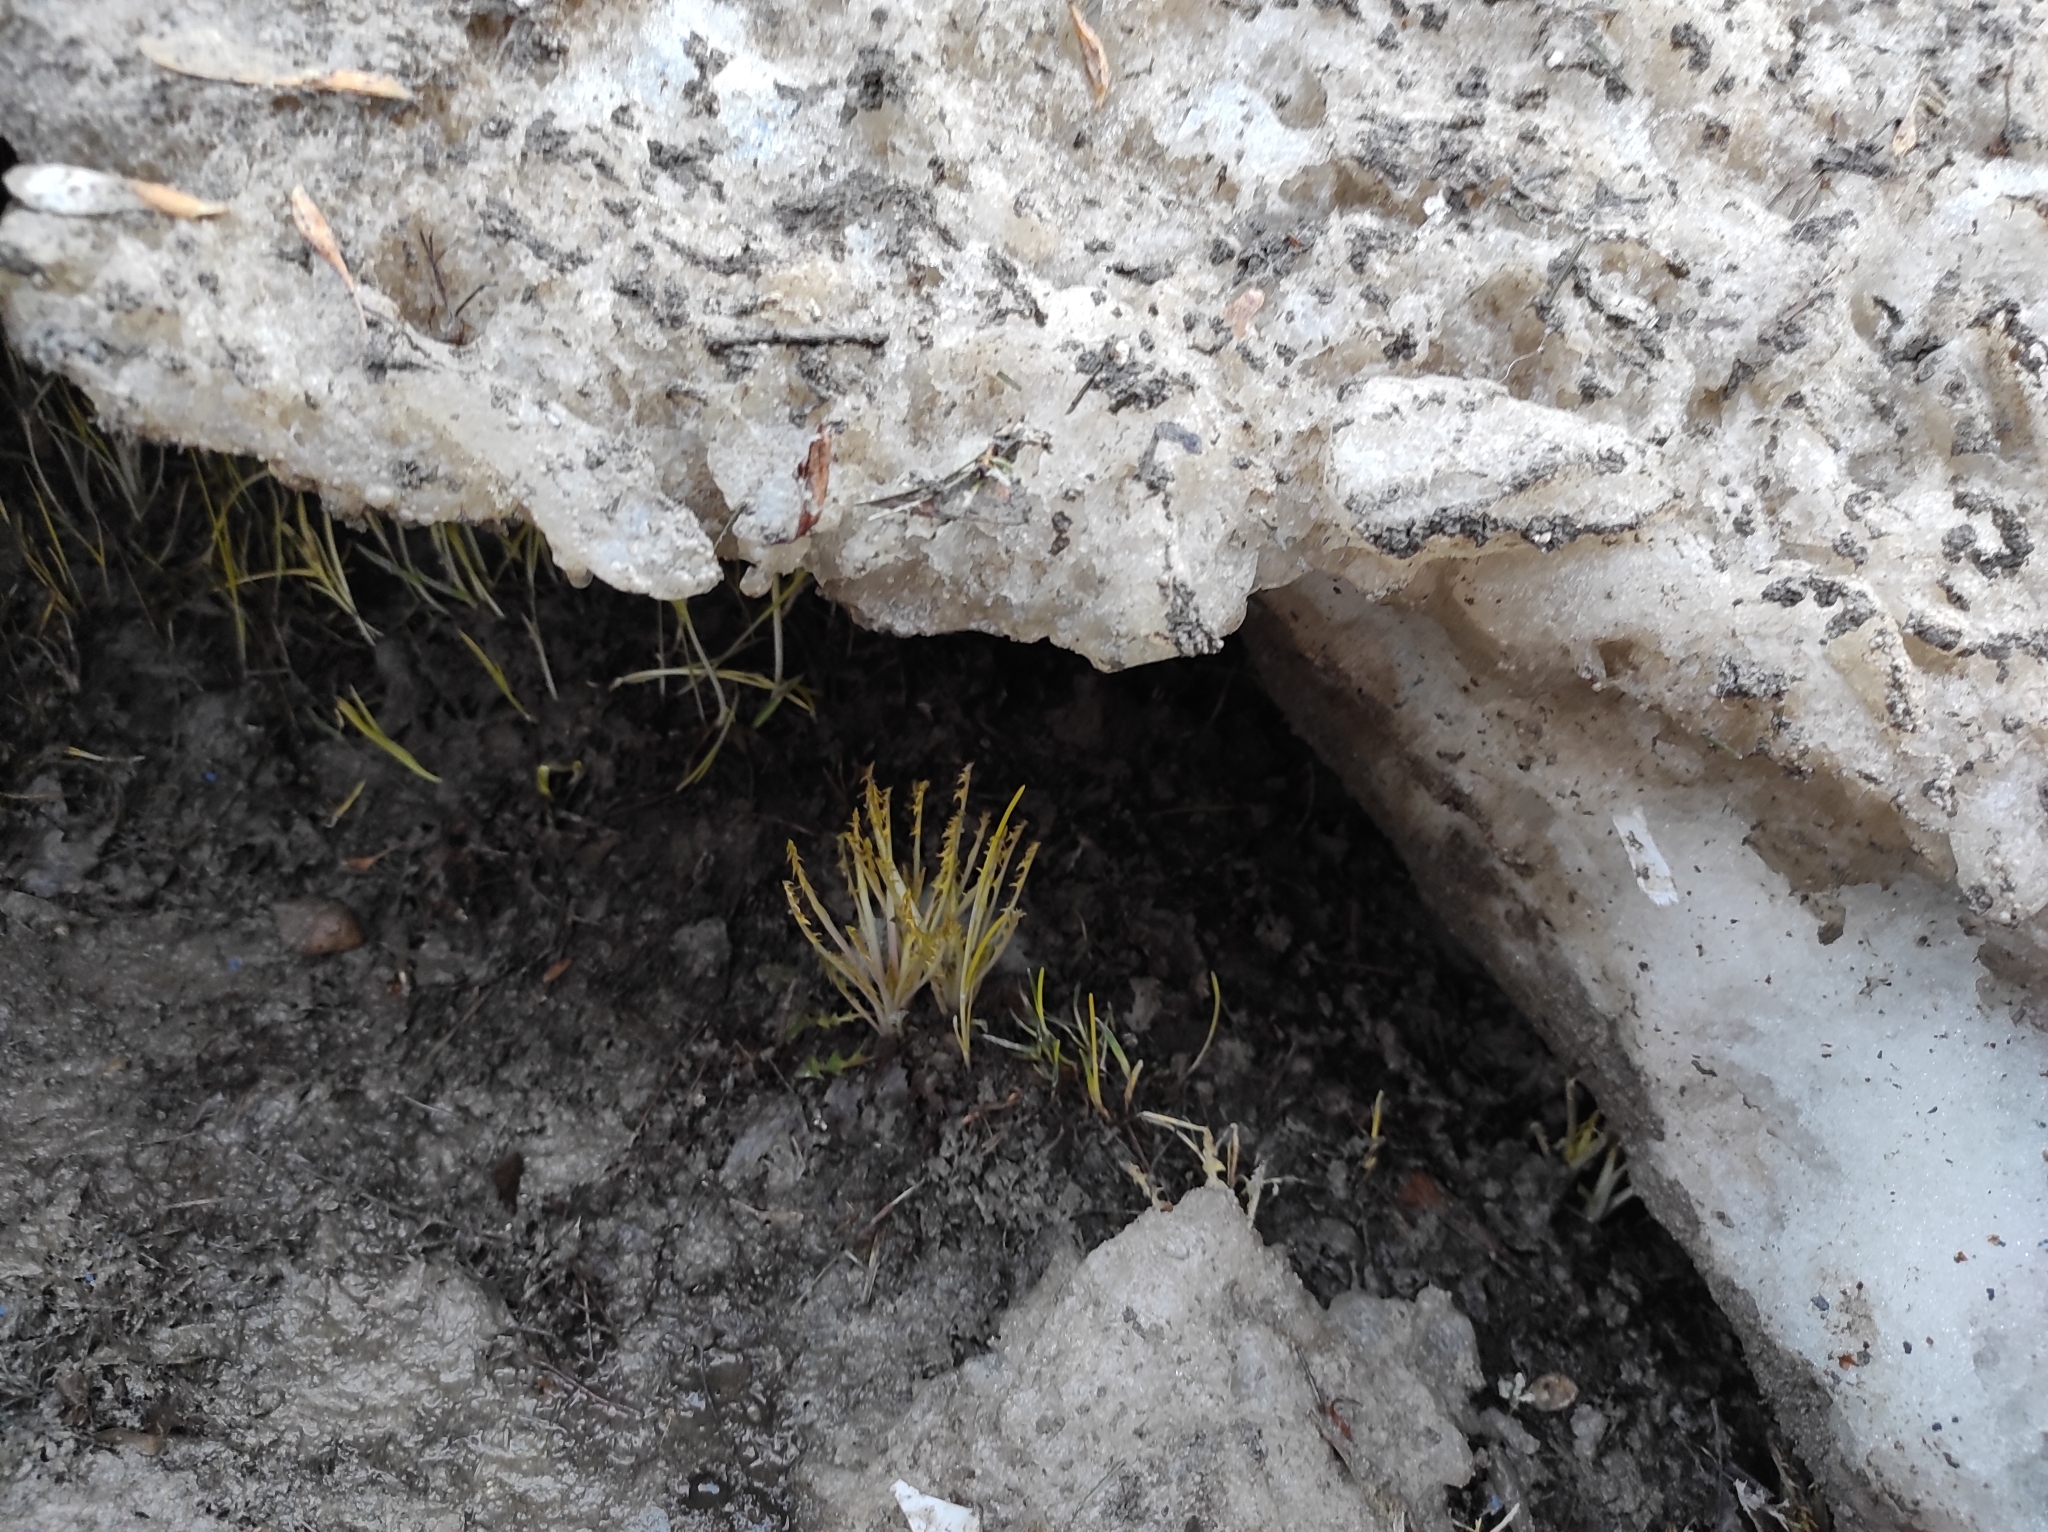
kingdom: Plantae
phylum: Tracheophyta
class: Magnoliopsida
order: Asterales
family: Asteraceae
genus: Taraxacum
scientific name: Taraxacum officinale
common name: Common dandelion
